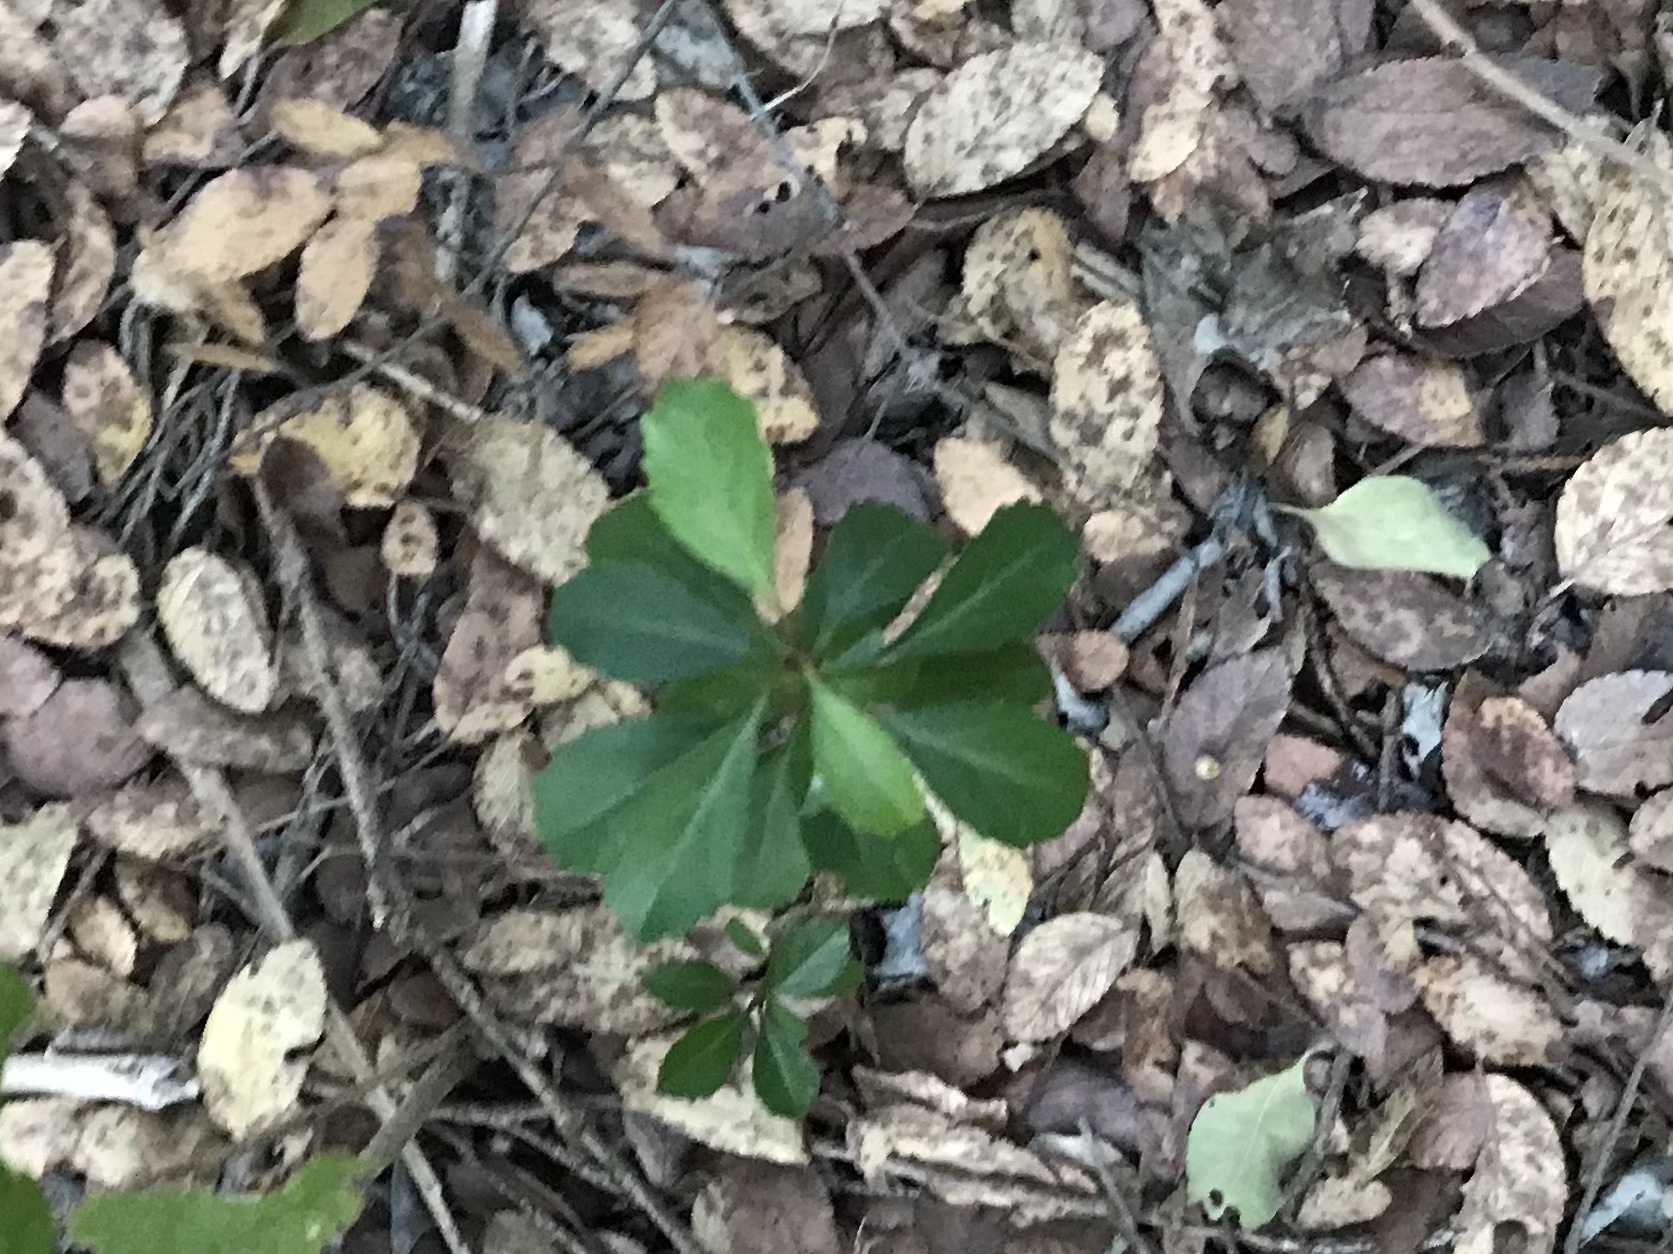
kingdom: Plantae
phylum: Tracheophyta
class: Magnoliopsida
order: Aquifoliales
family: Aquifoliaceae
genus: Ilex
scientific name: Ilex decidua
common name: Possum-haw
